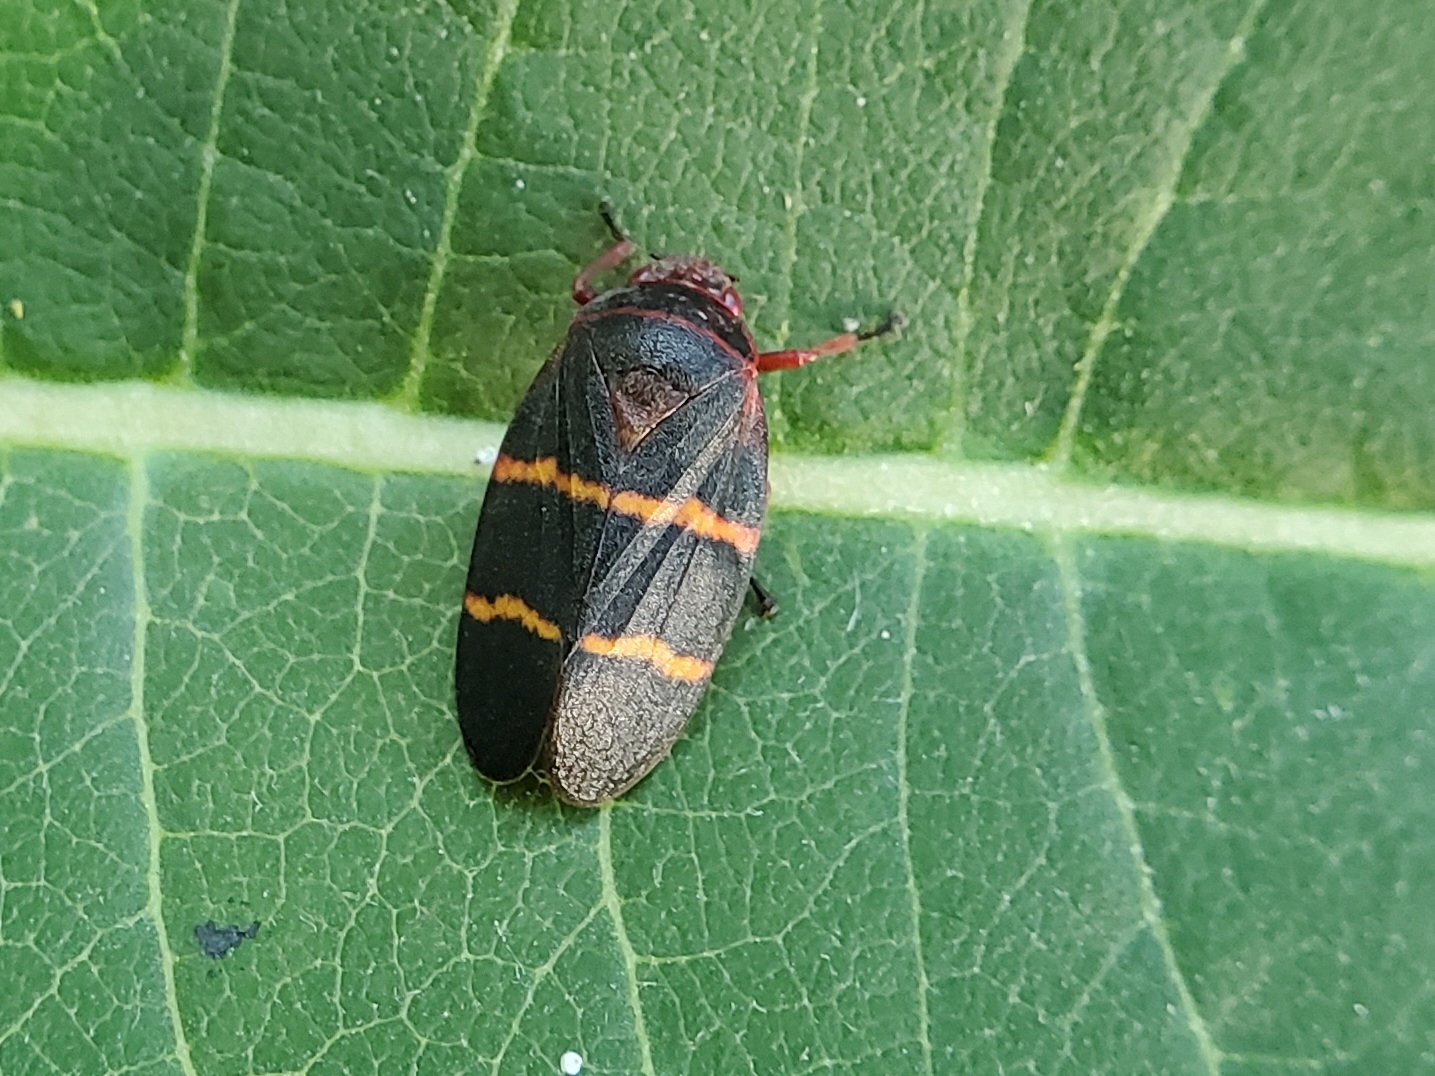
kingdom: Animalia
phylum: Arthropoda
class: Insecta
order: Hemiptera
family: Cercopidae
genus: Prosapia
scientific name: Prosapia bicincta
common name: Twolined spittlebug
